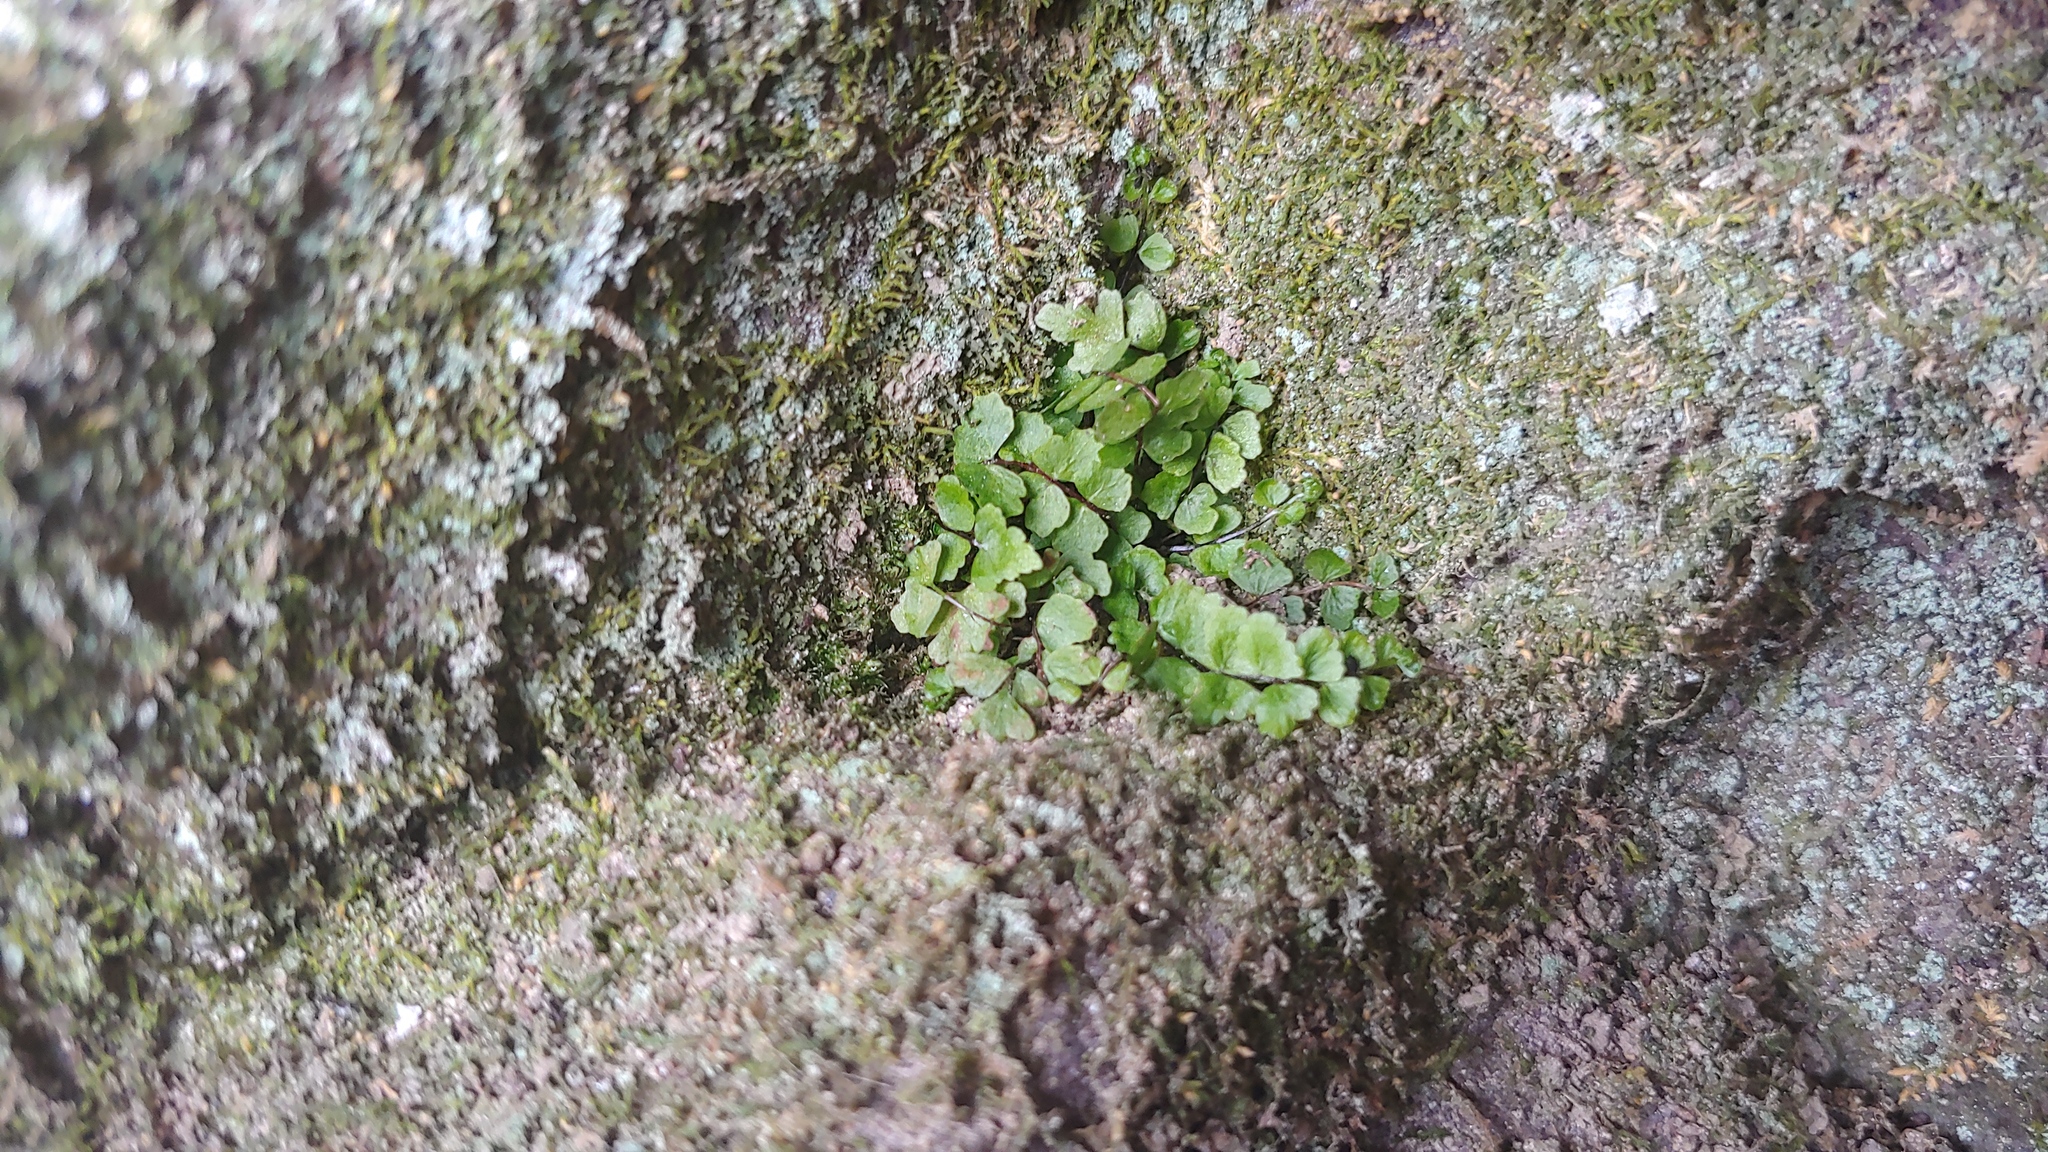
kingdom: Plantae
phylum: Tracheophyta
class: Polypodiopsida
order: Polypodiales
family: Aspleniaceae
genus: Asplenium
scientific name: Asplenium trichomanes
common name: Maidenhair spleenwort
